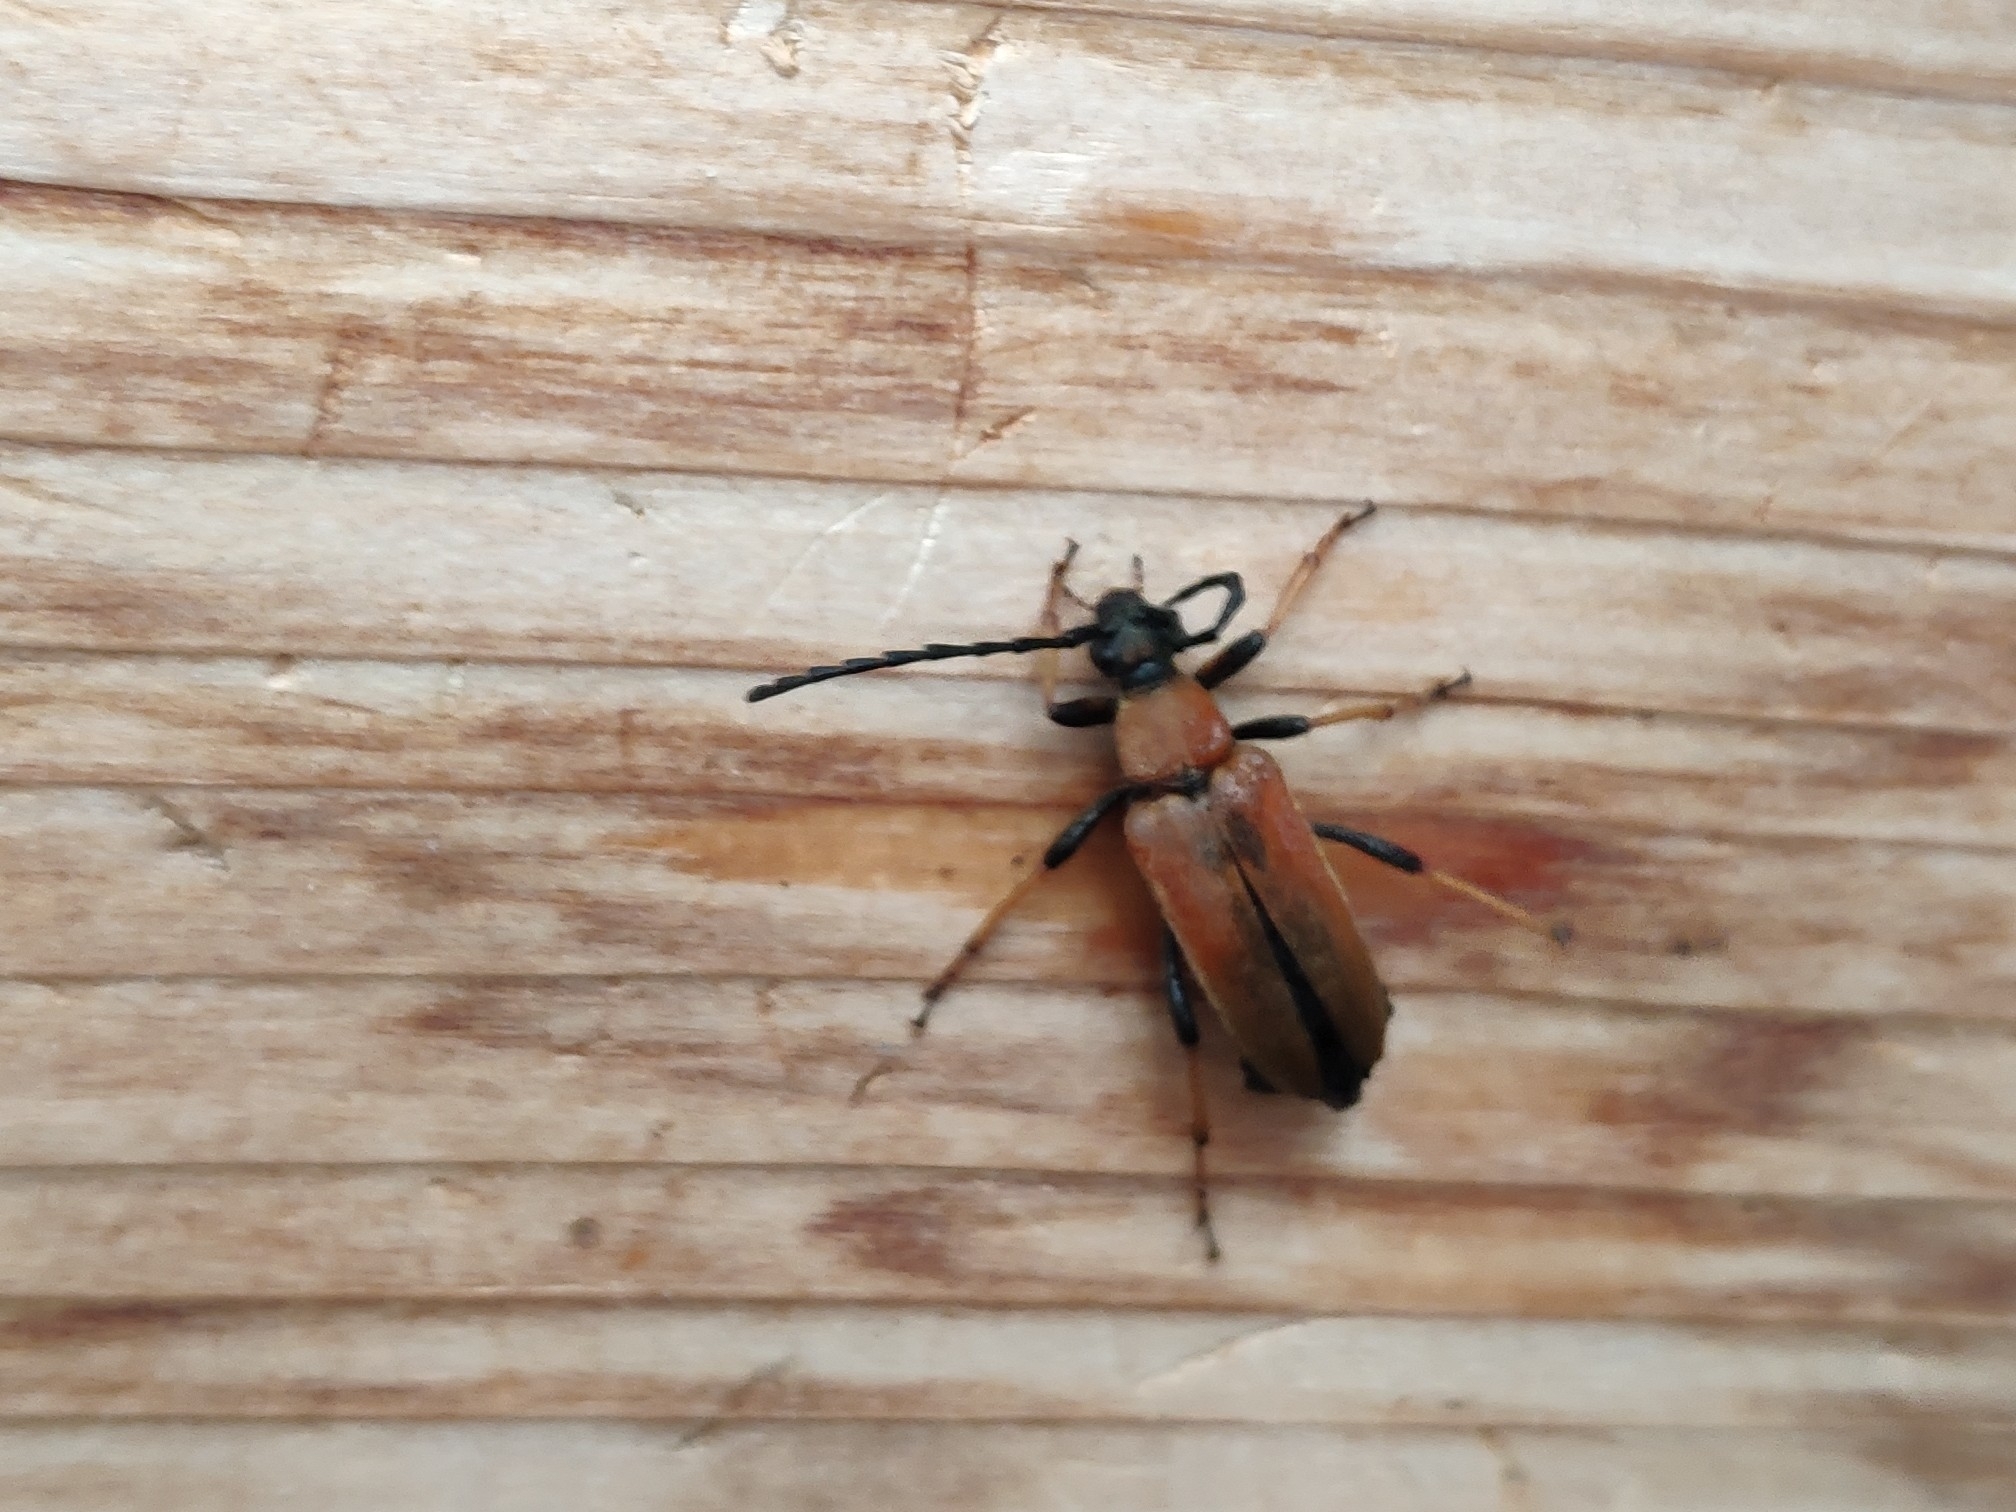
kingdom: Animalia
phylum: Arthropoda
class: Insecta
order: Coleoptera
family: Cerambycidae
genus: Stictoleptura
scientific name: Stictoleptura rubra
